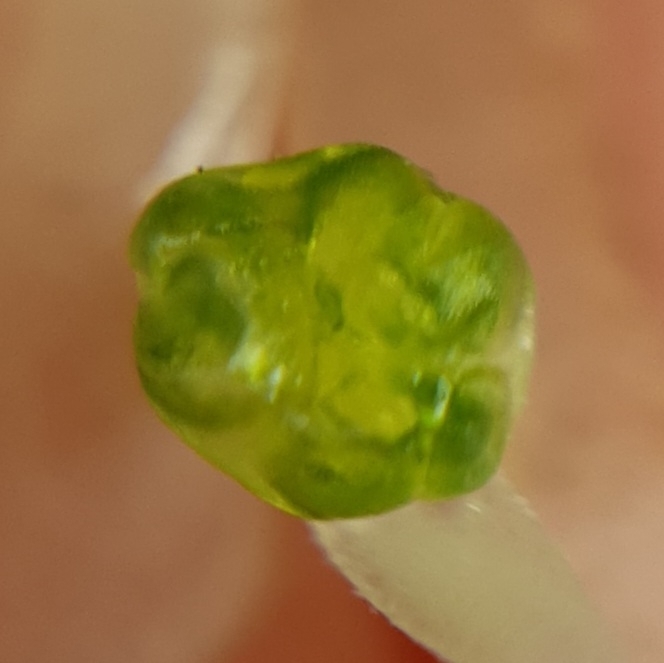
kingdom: Plantae
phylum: Tracheophyta
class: Liliopsida
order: Asparagales
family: Amaryllidaceae
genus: Allium
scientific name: Allium ebusitanum
